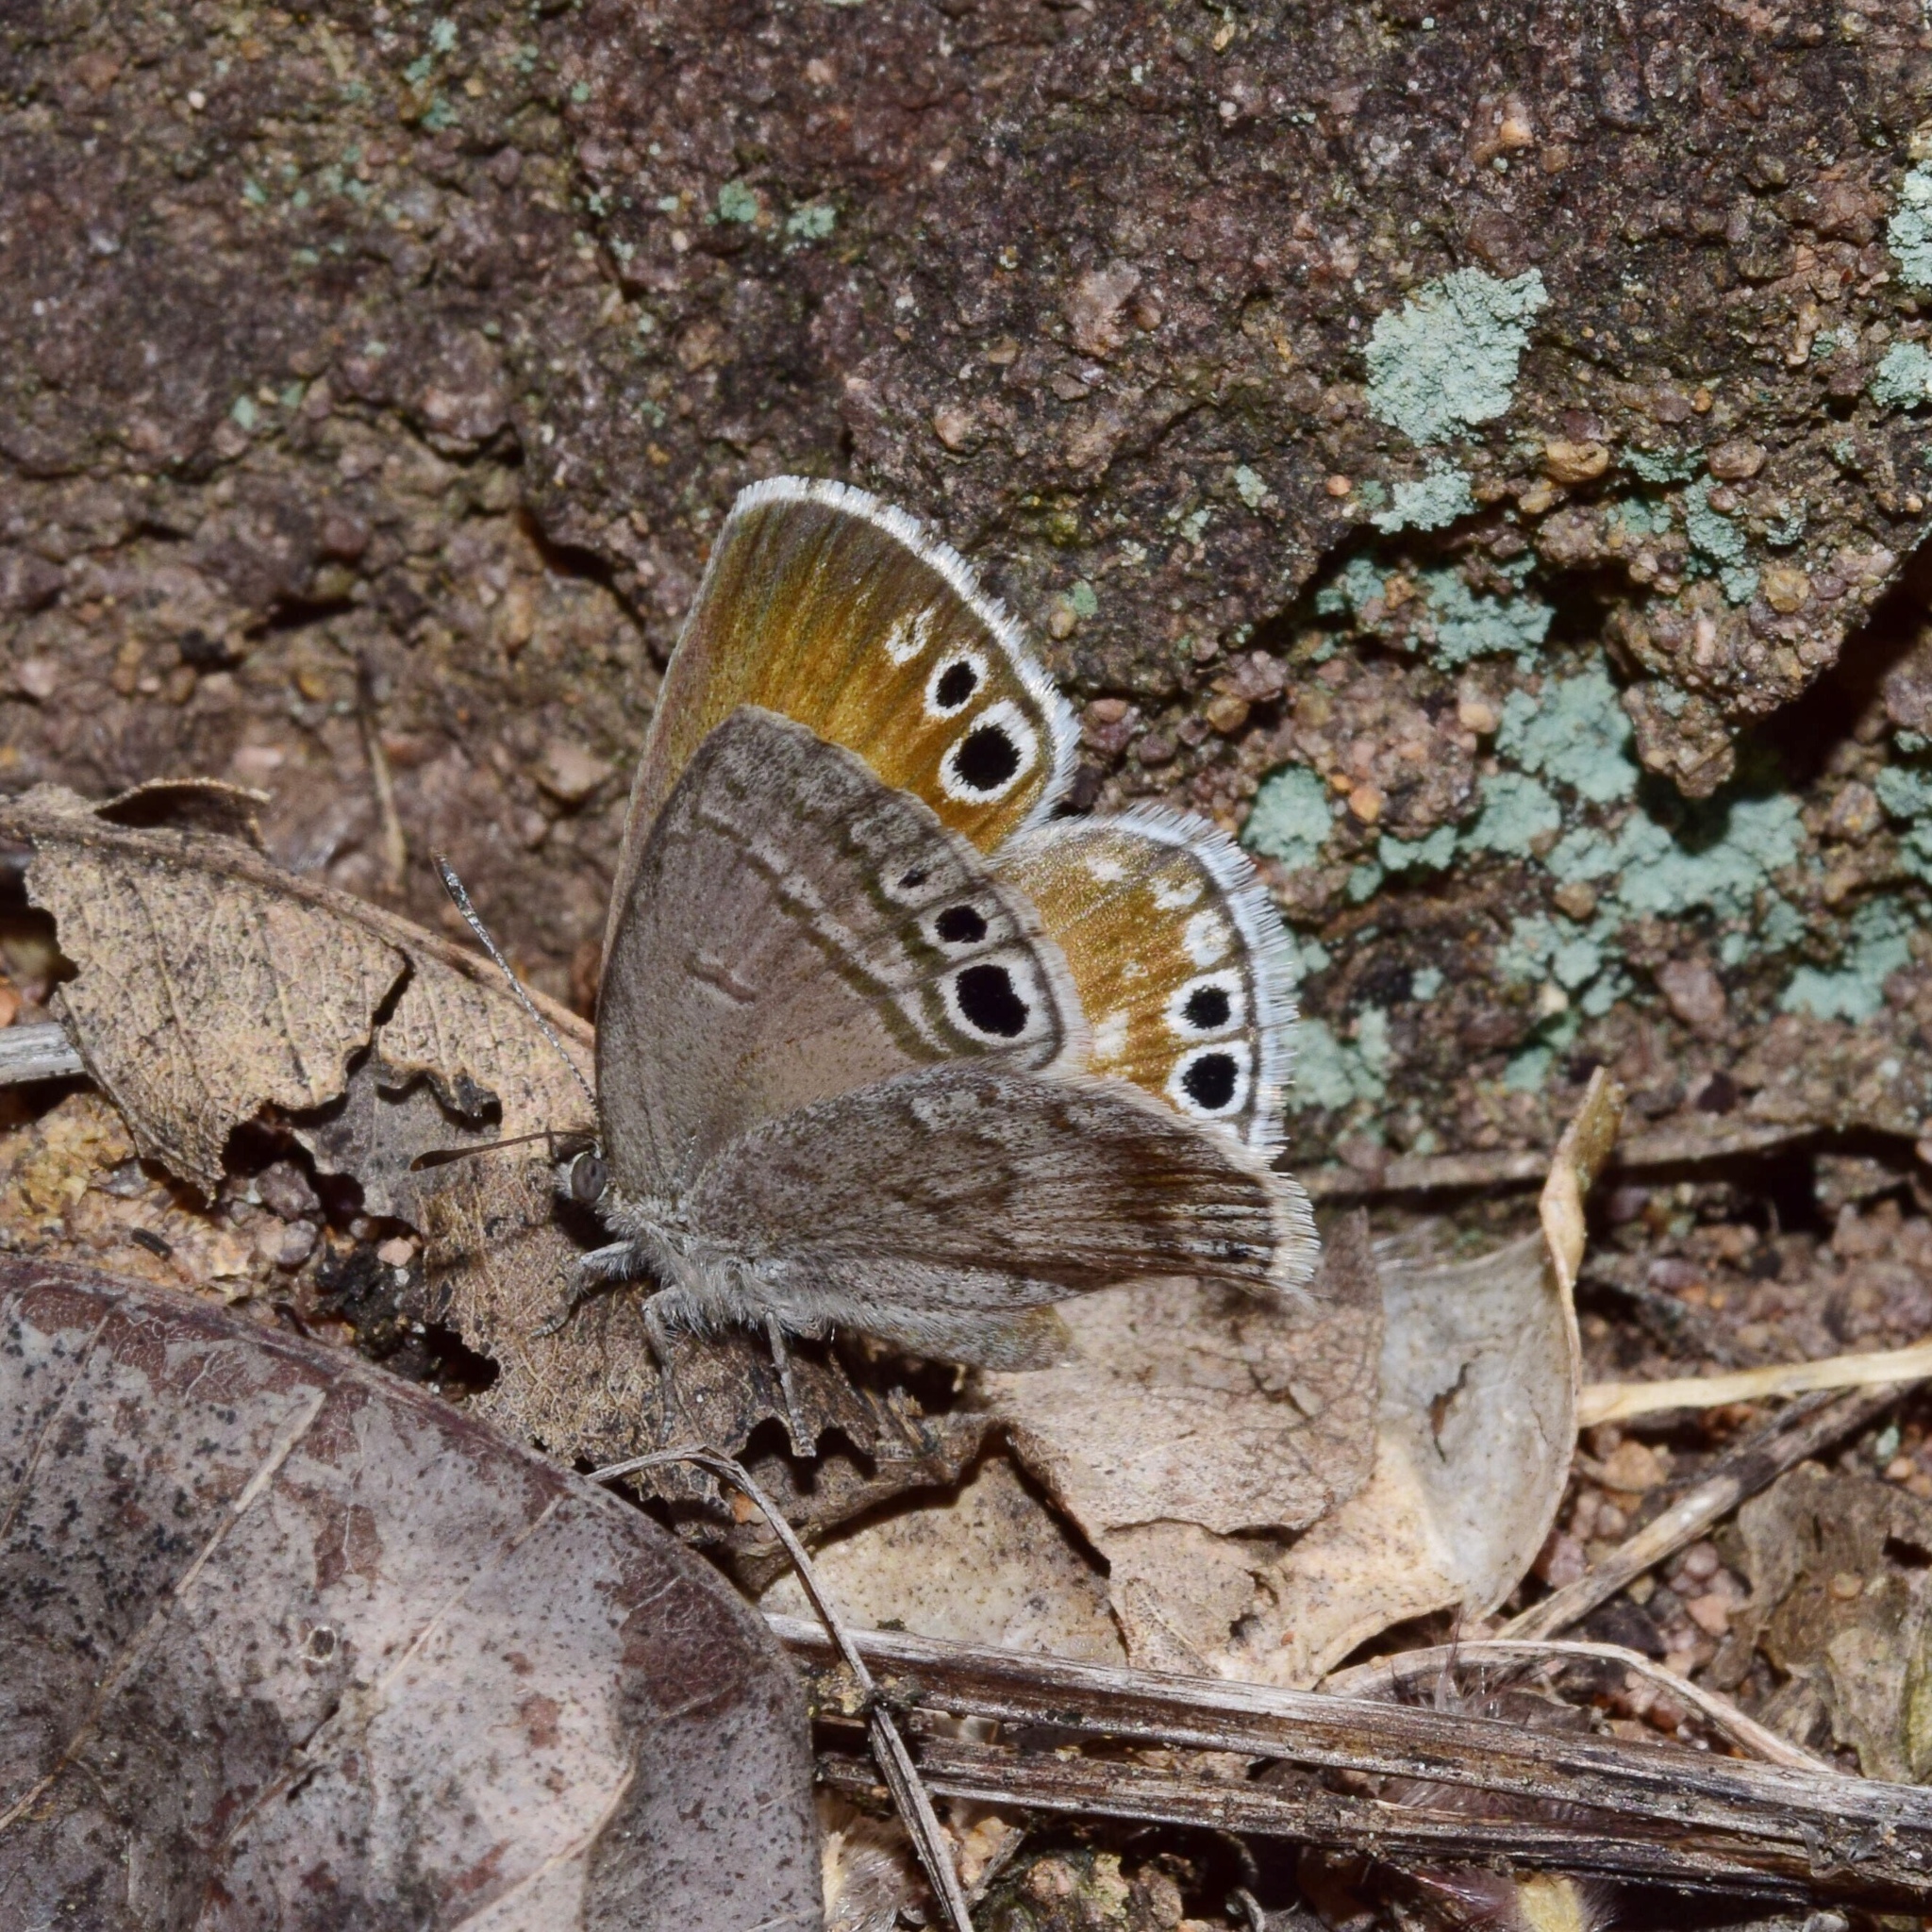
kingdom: Animalia
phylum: Arthropoda
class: Insecta
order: Lepidoptera
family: Lycaenidae
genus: Leptomyrina
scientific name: Leptomyrina gorgias
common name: Common black-eye
